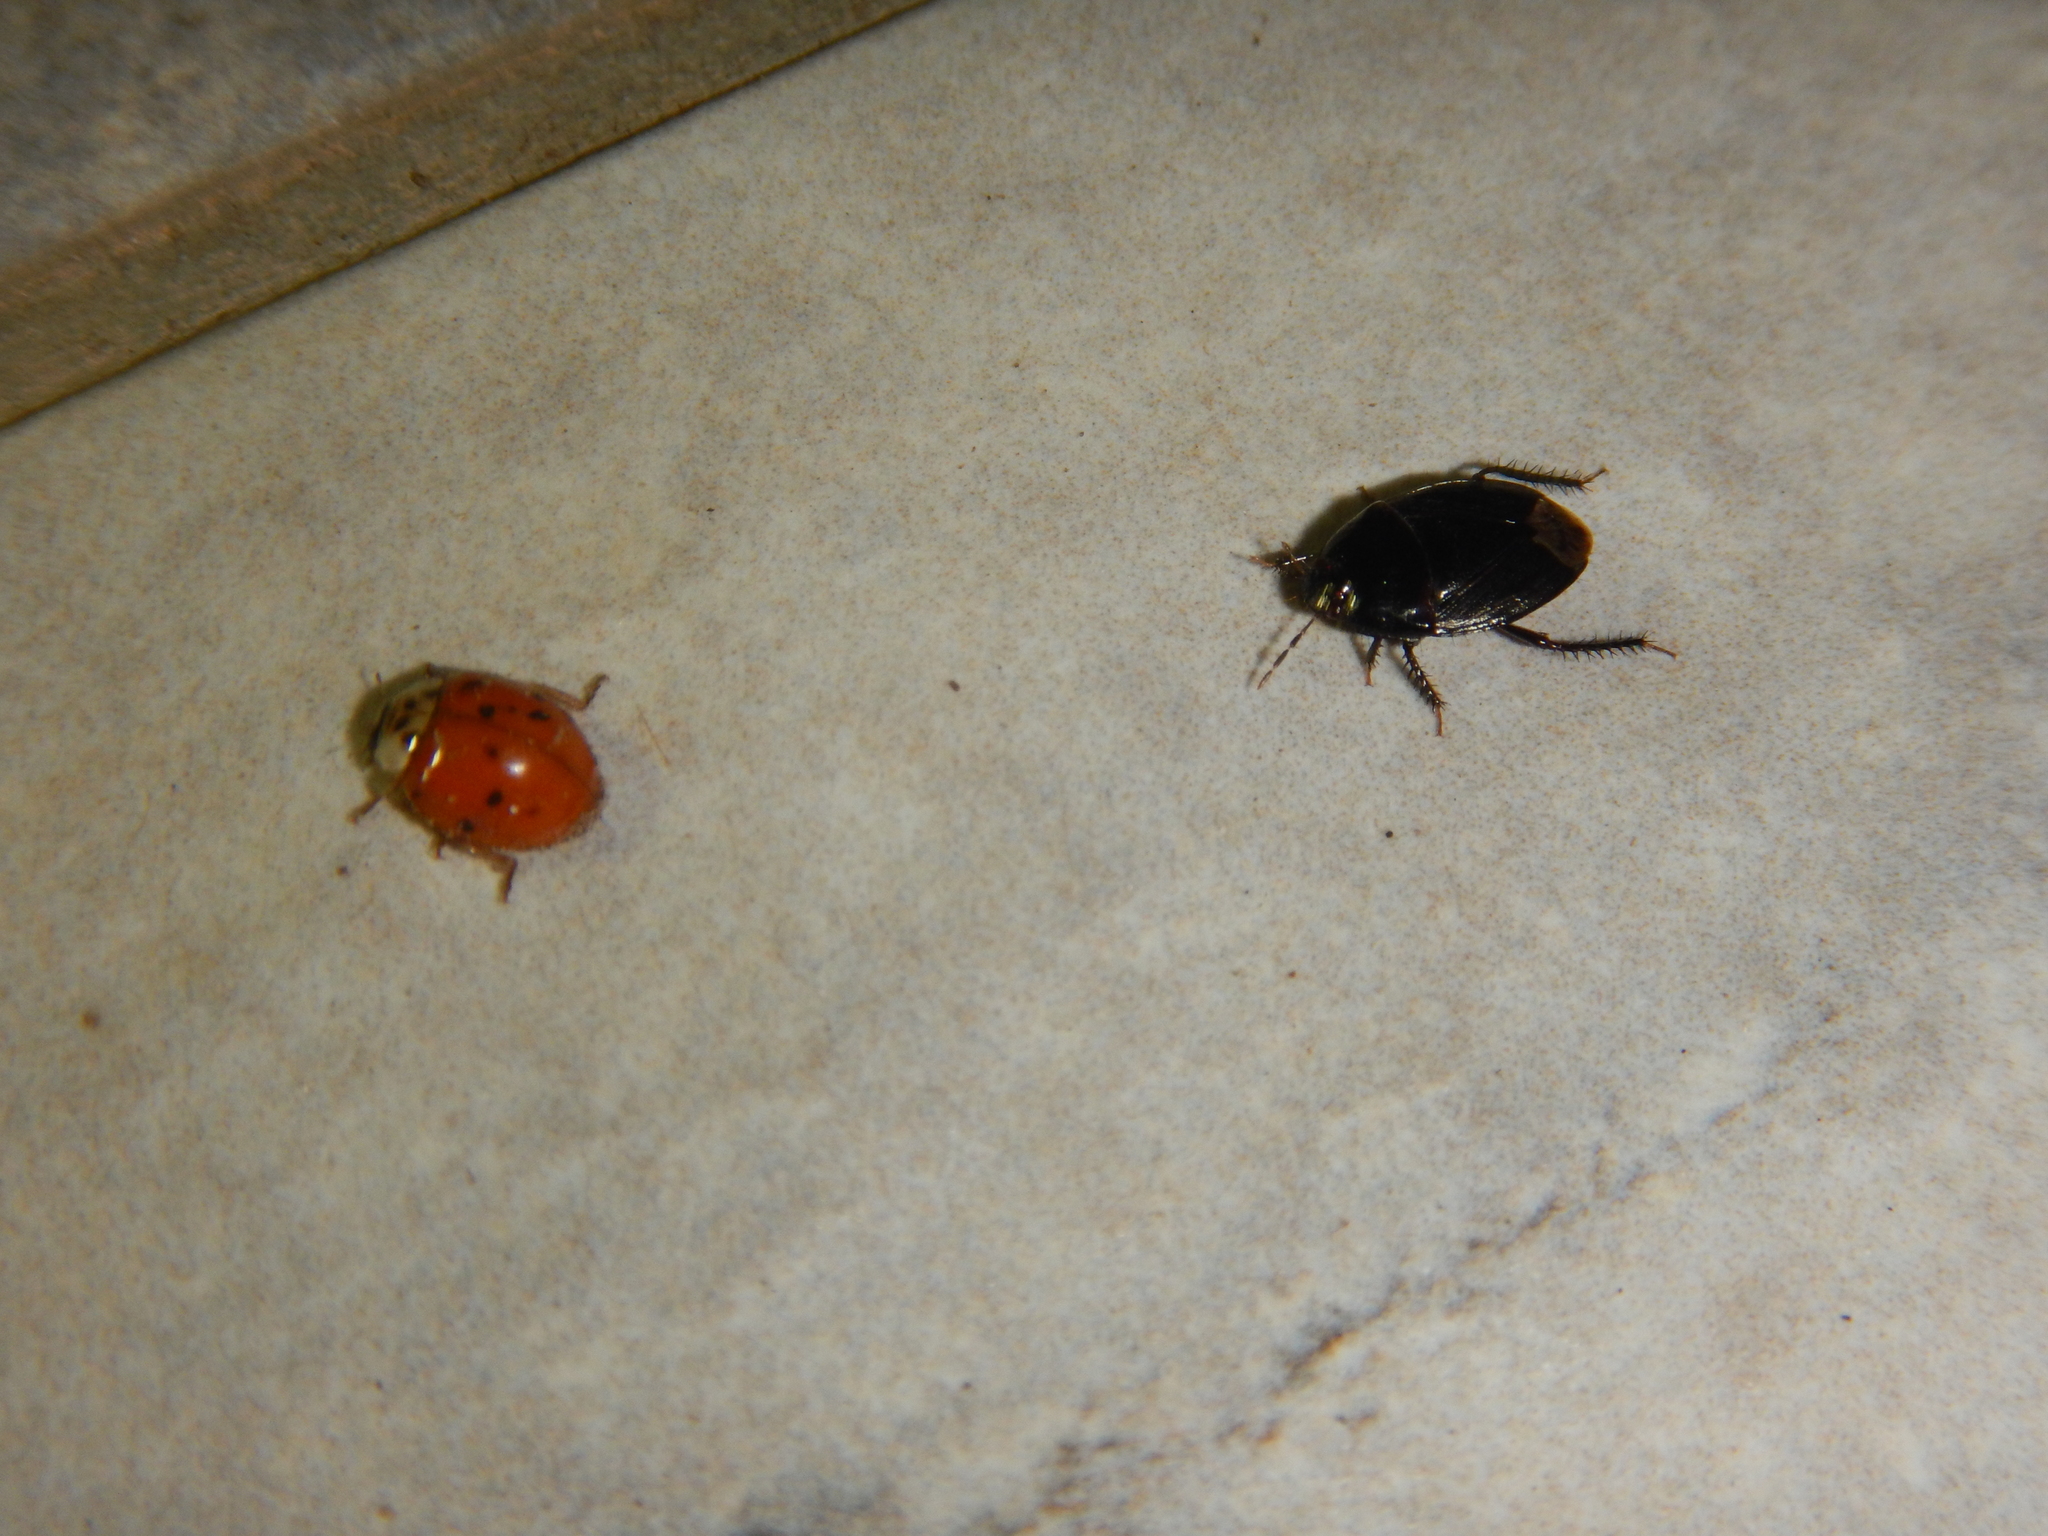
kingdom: Animalia
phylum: Arthropoda
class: Insecta
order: Hemiptera
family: Cydnidae
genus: Macroscytus
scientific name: Macroscytus brunneus
